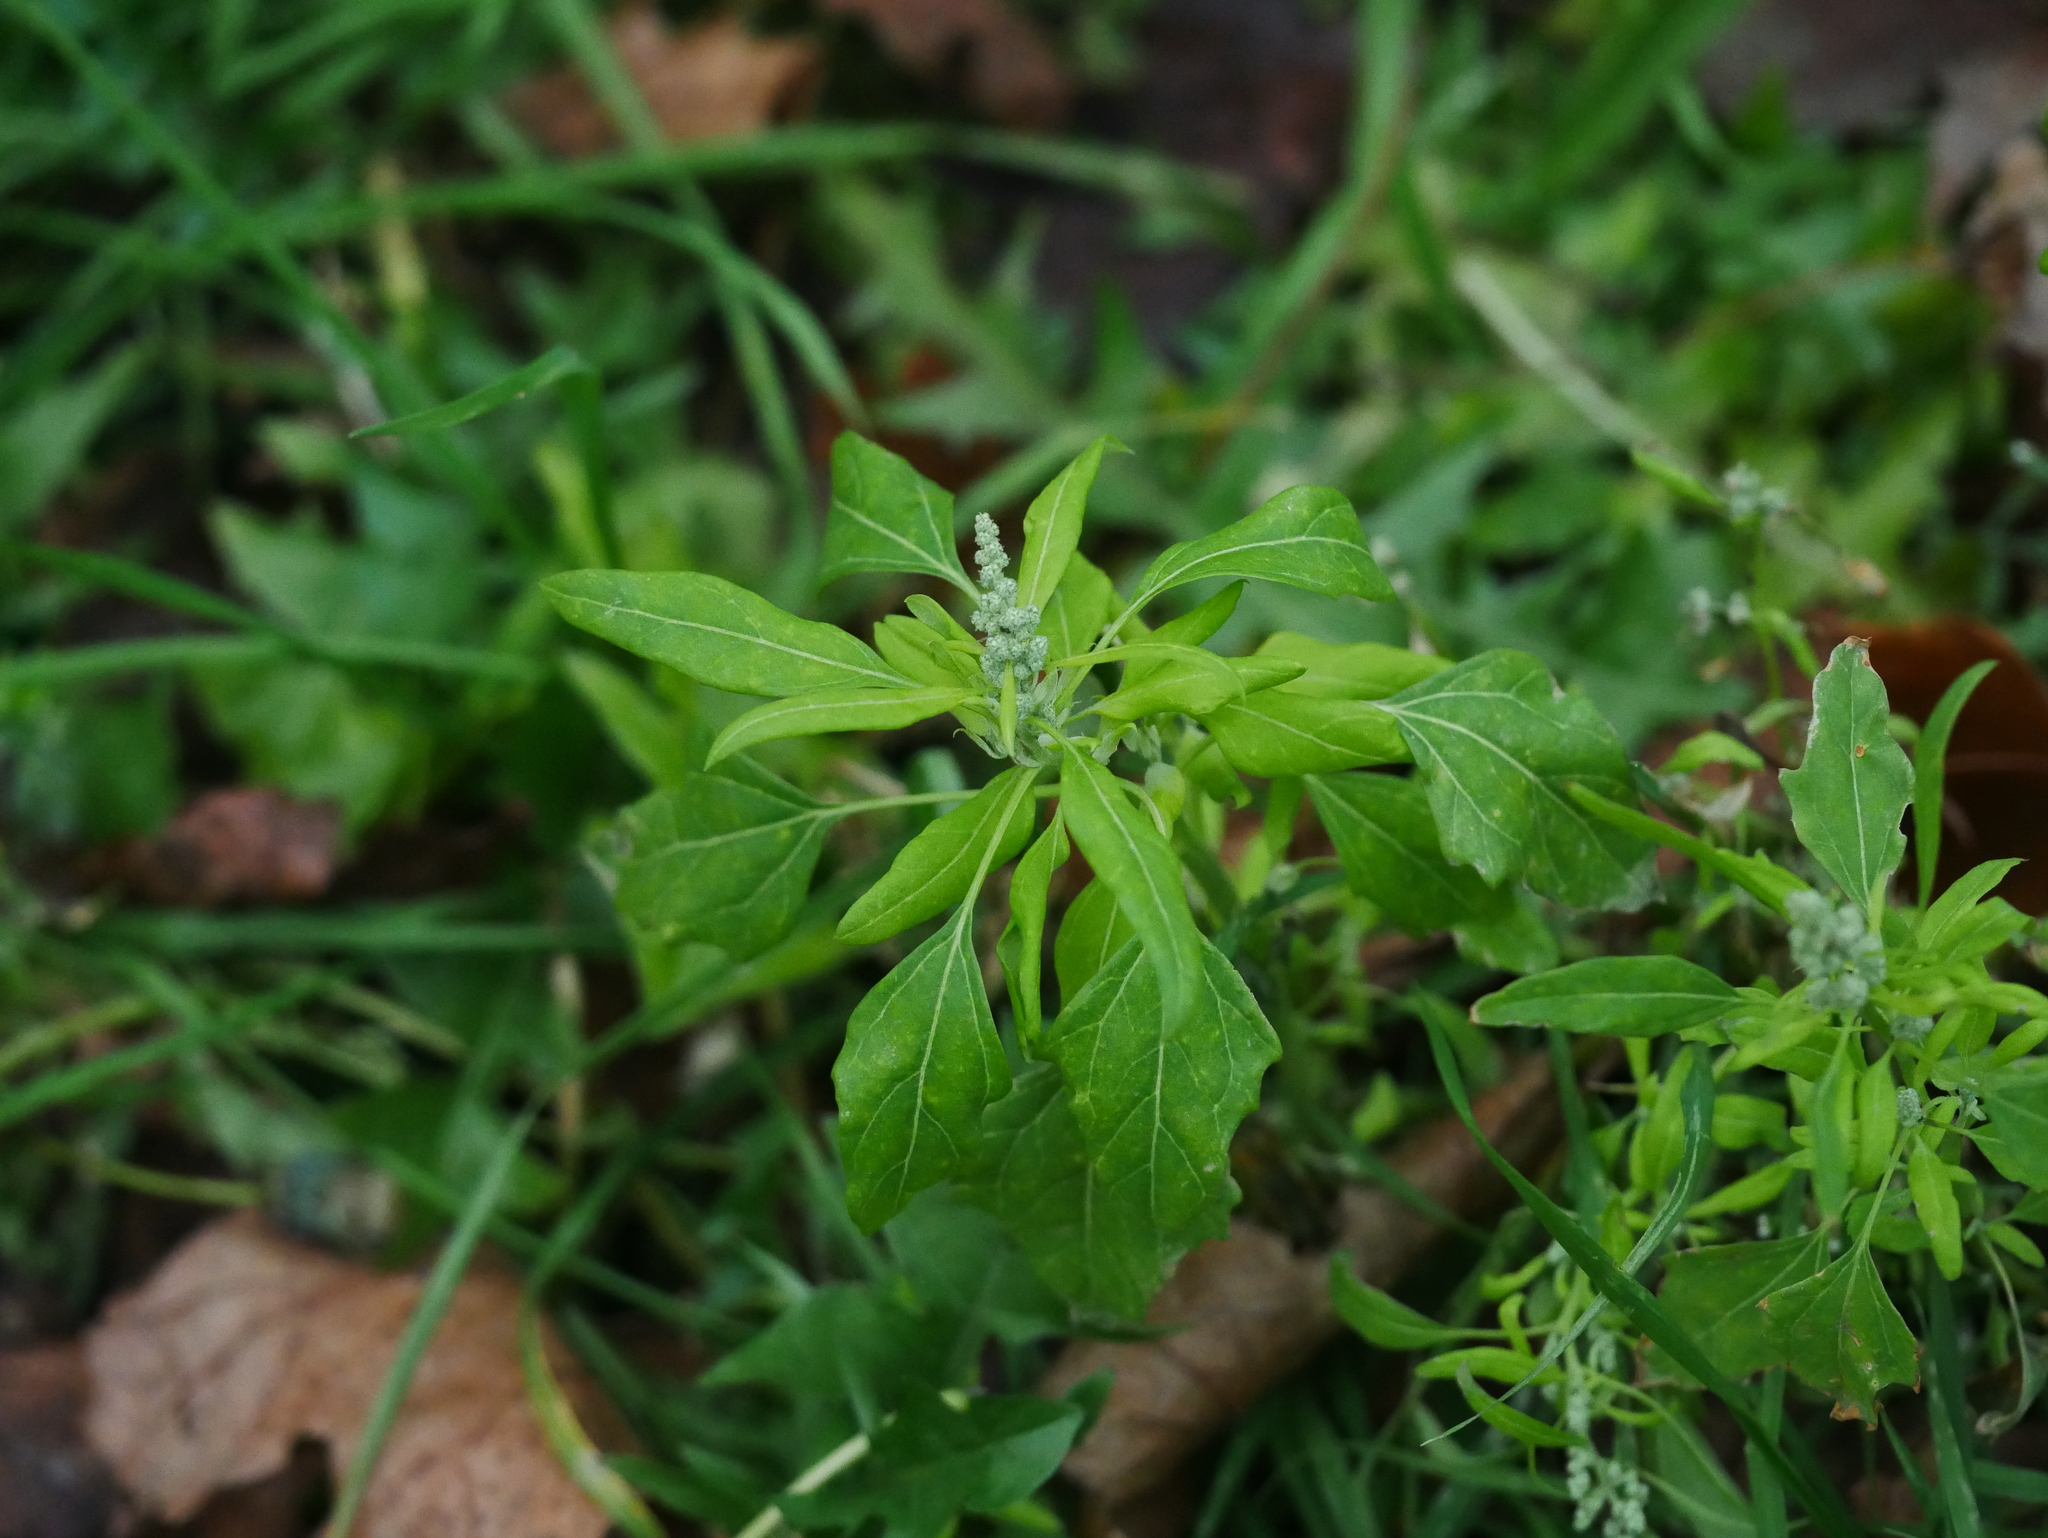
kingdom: Plantae
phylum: Tracheophyta
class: Magnoliopsida
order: Caryophyllales
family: Amaranthaceae
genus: Chenopodium
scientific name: Chenopodium album
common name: Fat-hen
